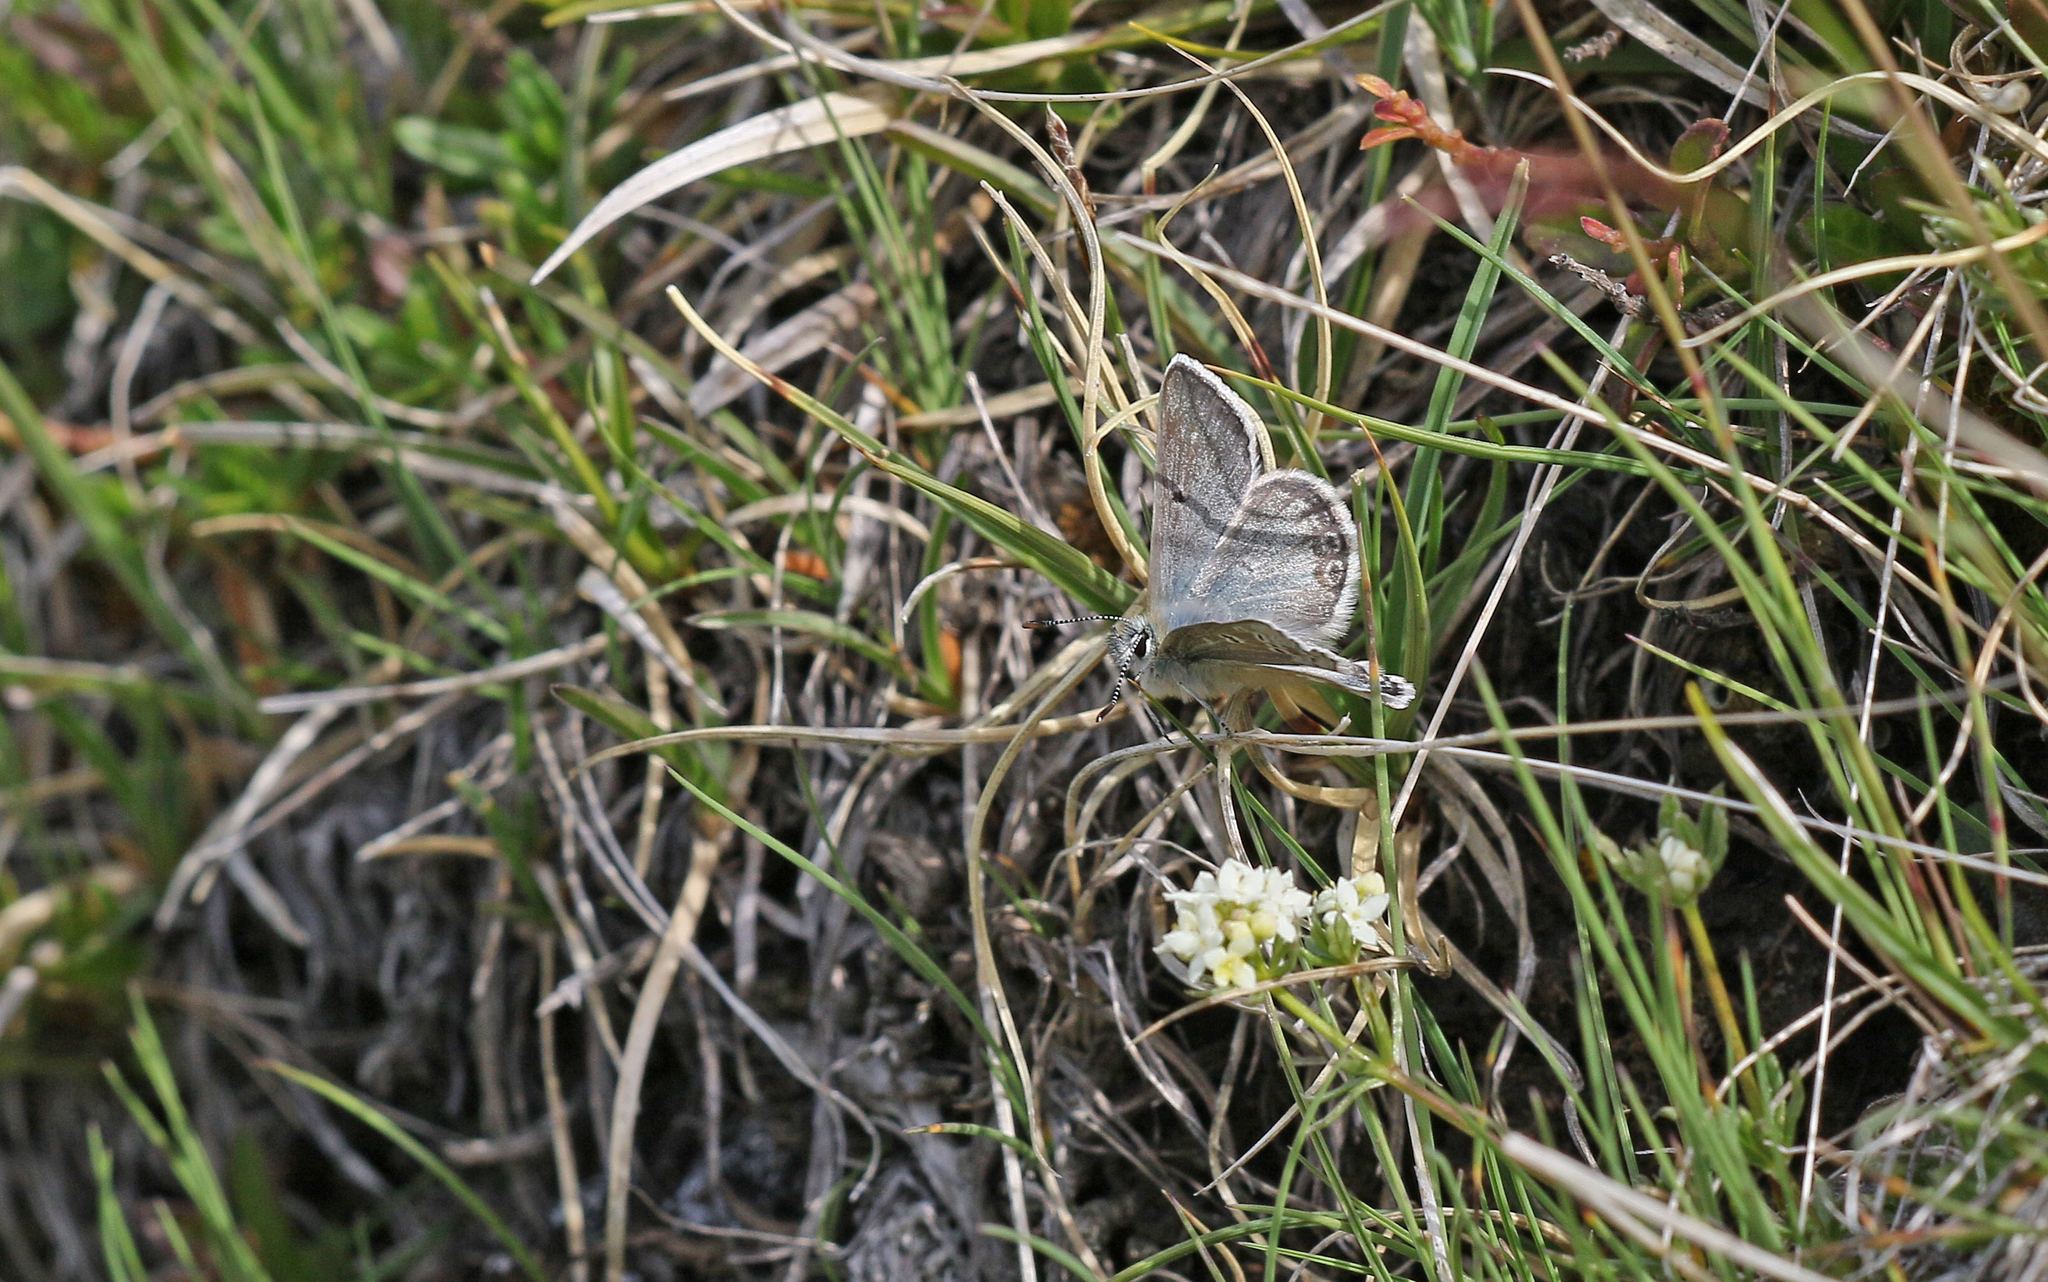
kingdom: Animalia
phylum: Arthropoda
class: Insecta
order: Lepidoptera
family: Lycaenidae
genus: Agriades
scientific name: Agriades glandon
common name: Glandon blue
